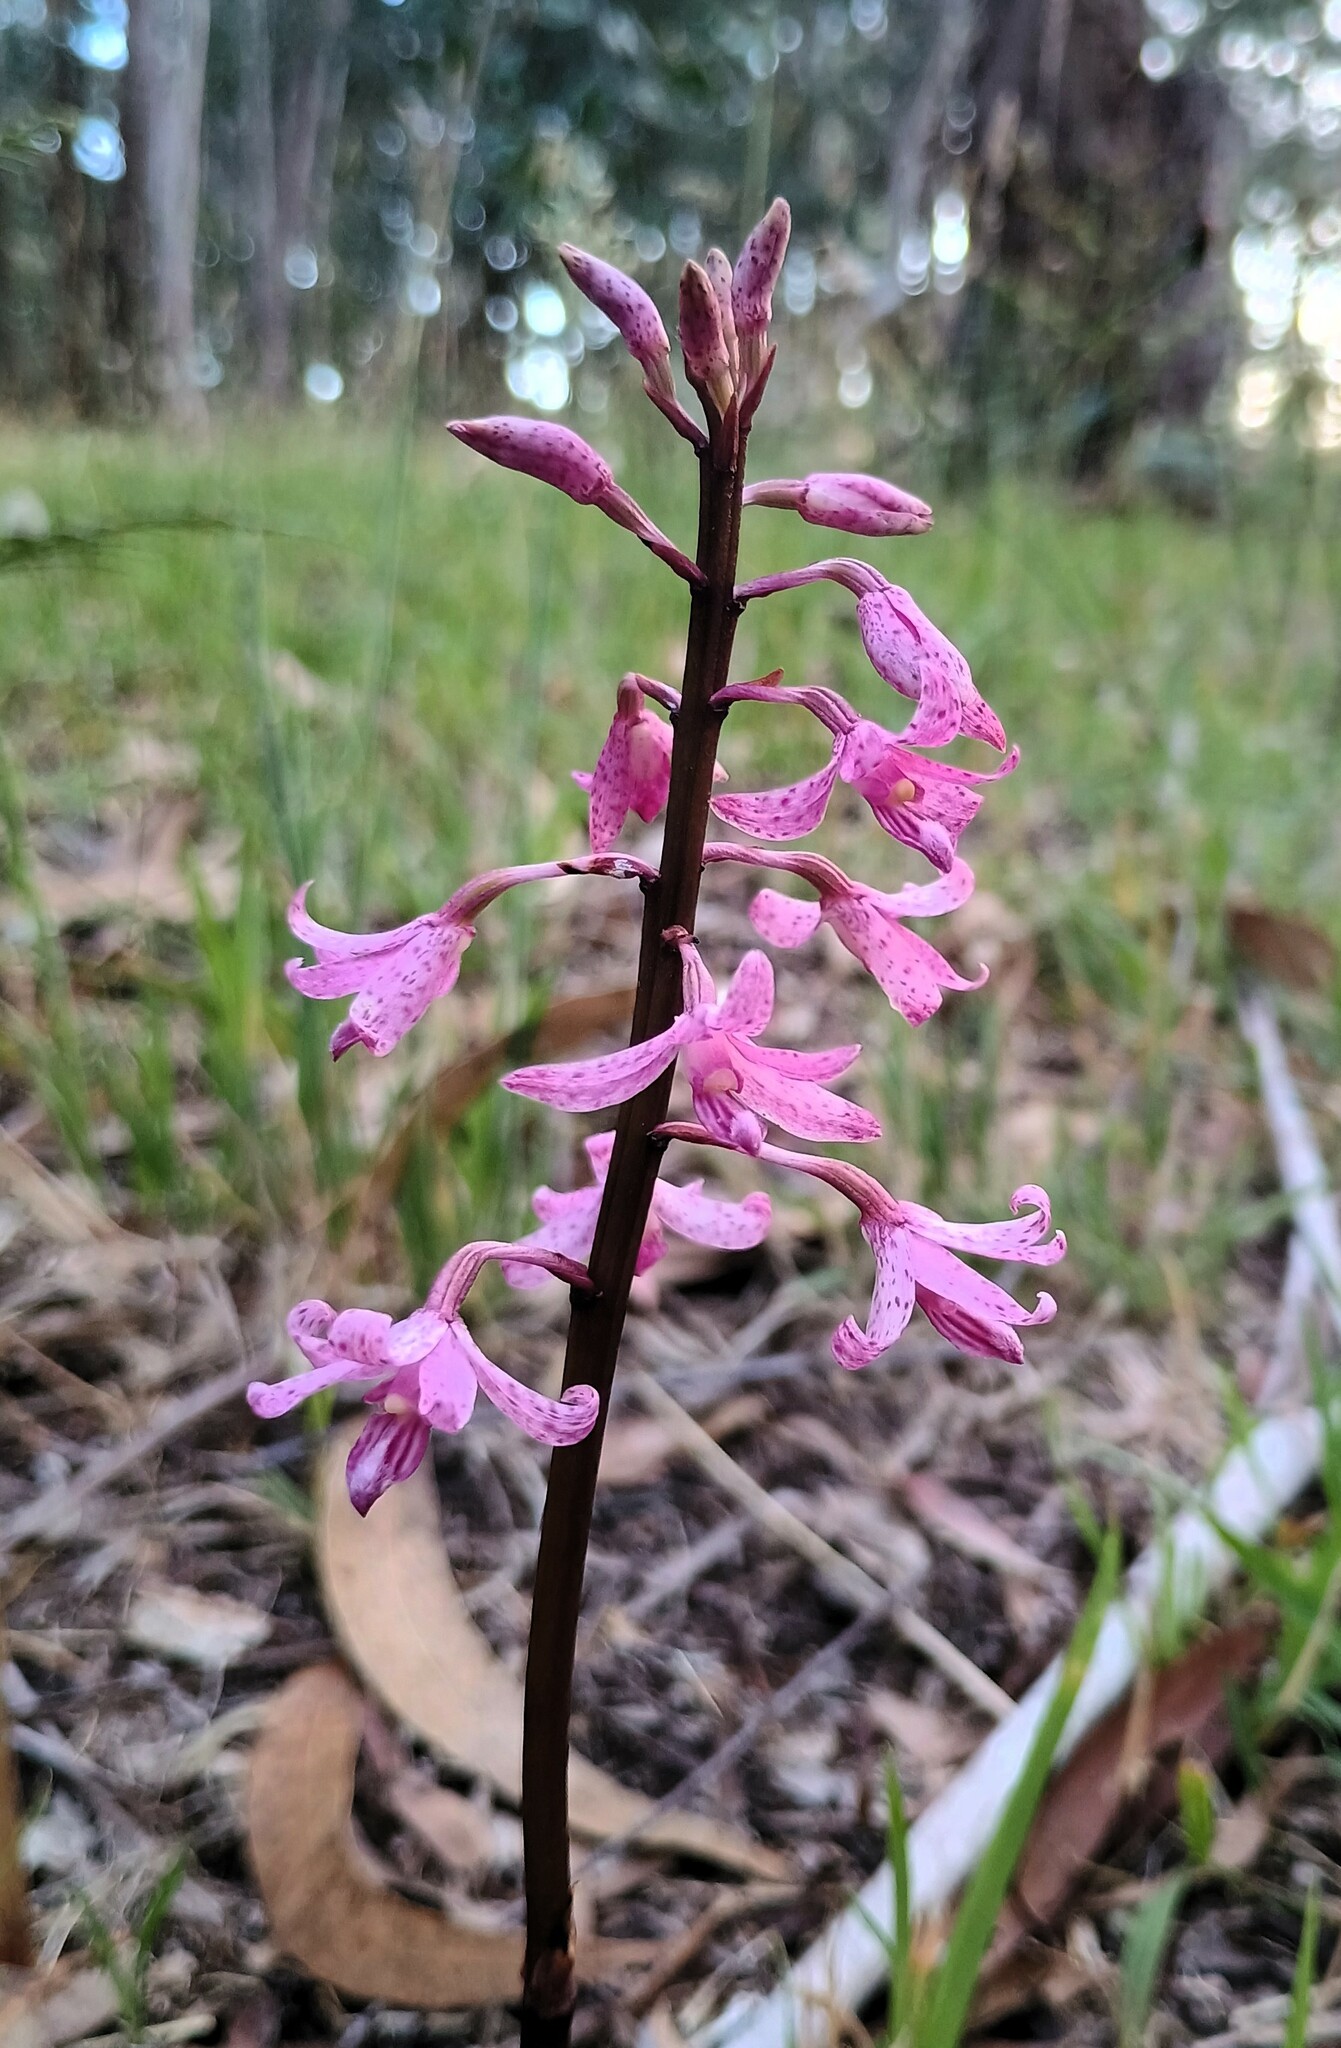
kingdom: Plantae
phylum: Tracheophyta
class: Liliopsida
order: Asparagales
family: Orchidaceae
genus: Dipodium
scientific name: Dipodium roseum
